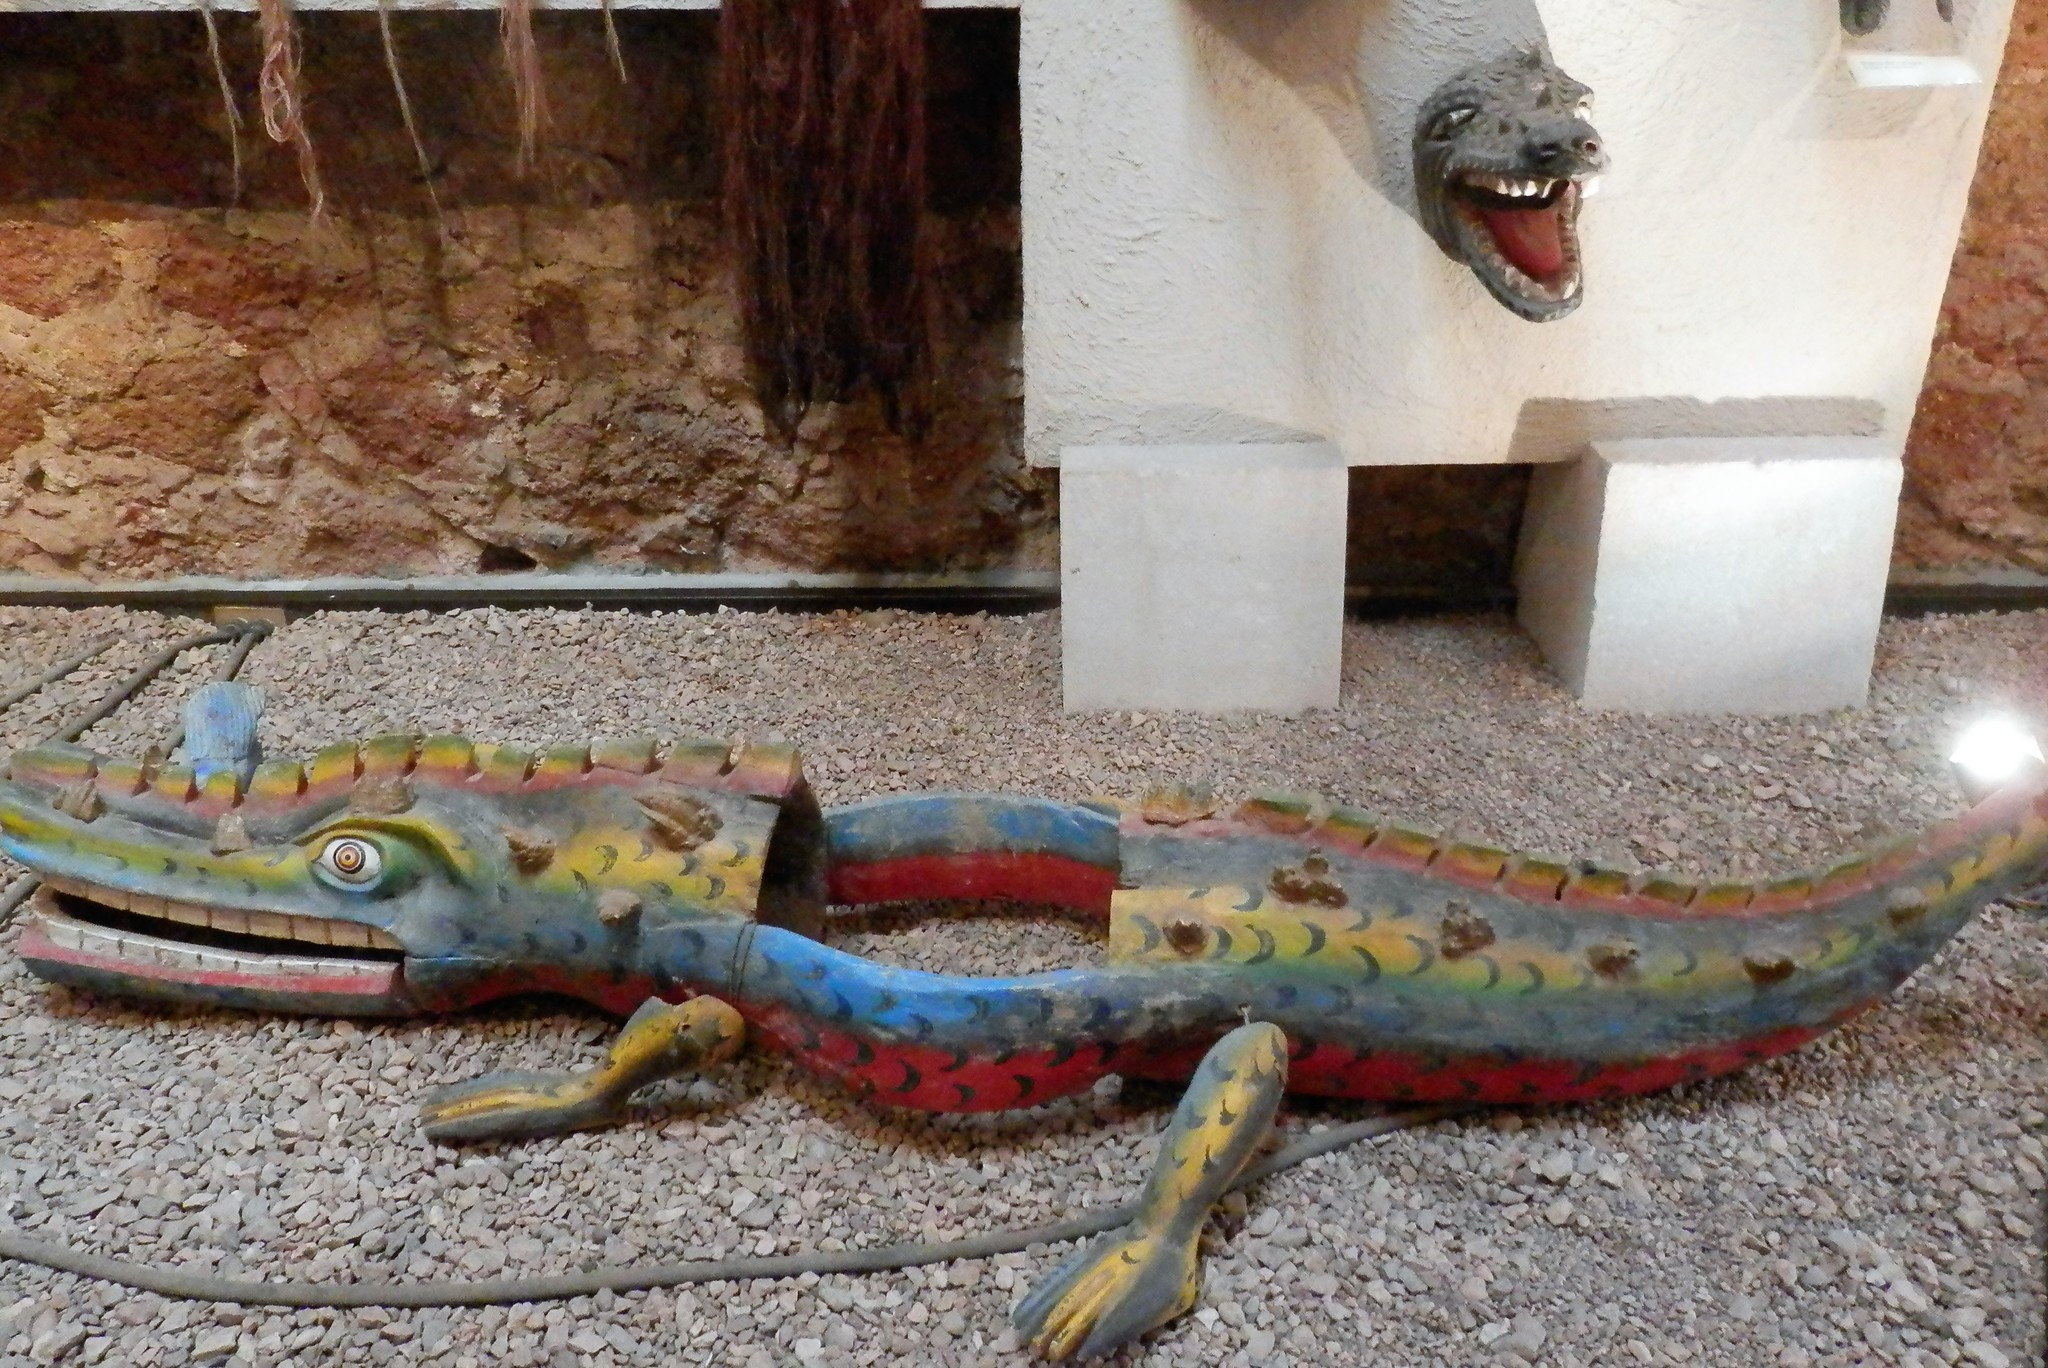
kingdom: Animalia
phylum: Chordata
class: Crocodylia
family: Crocodylidae
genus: Crocodylus
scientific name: Crocodylus moreletii
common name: Morelet's crocodile
